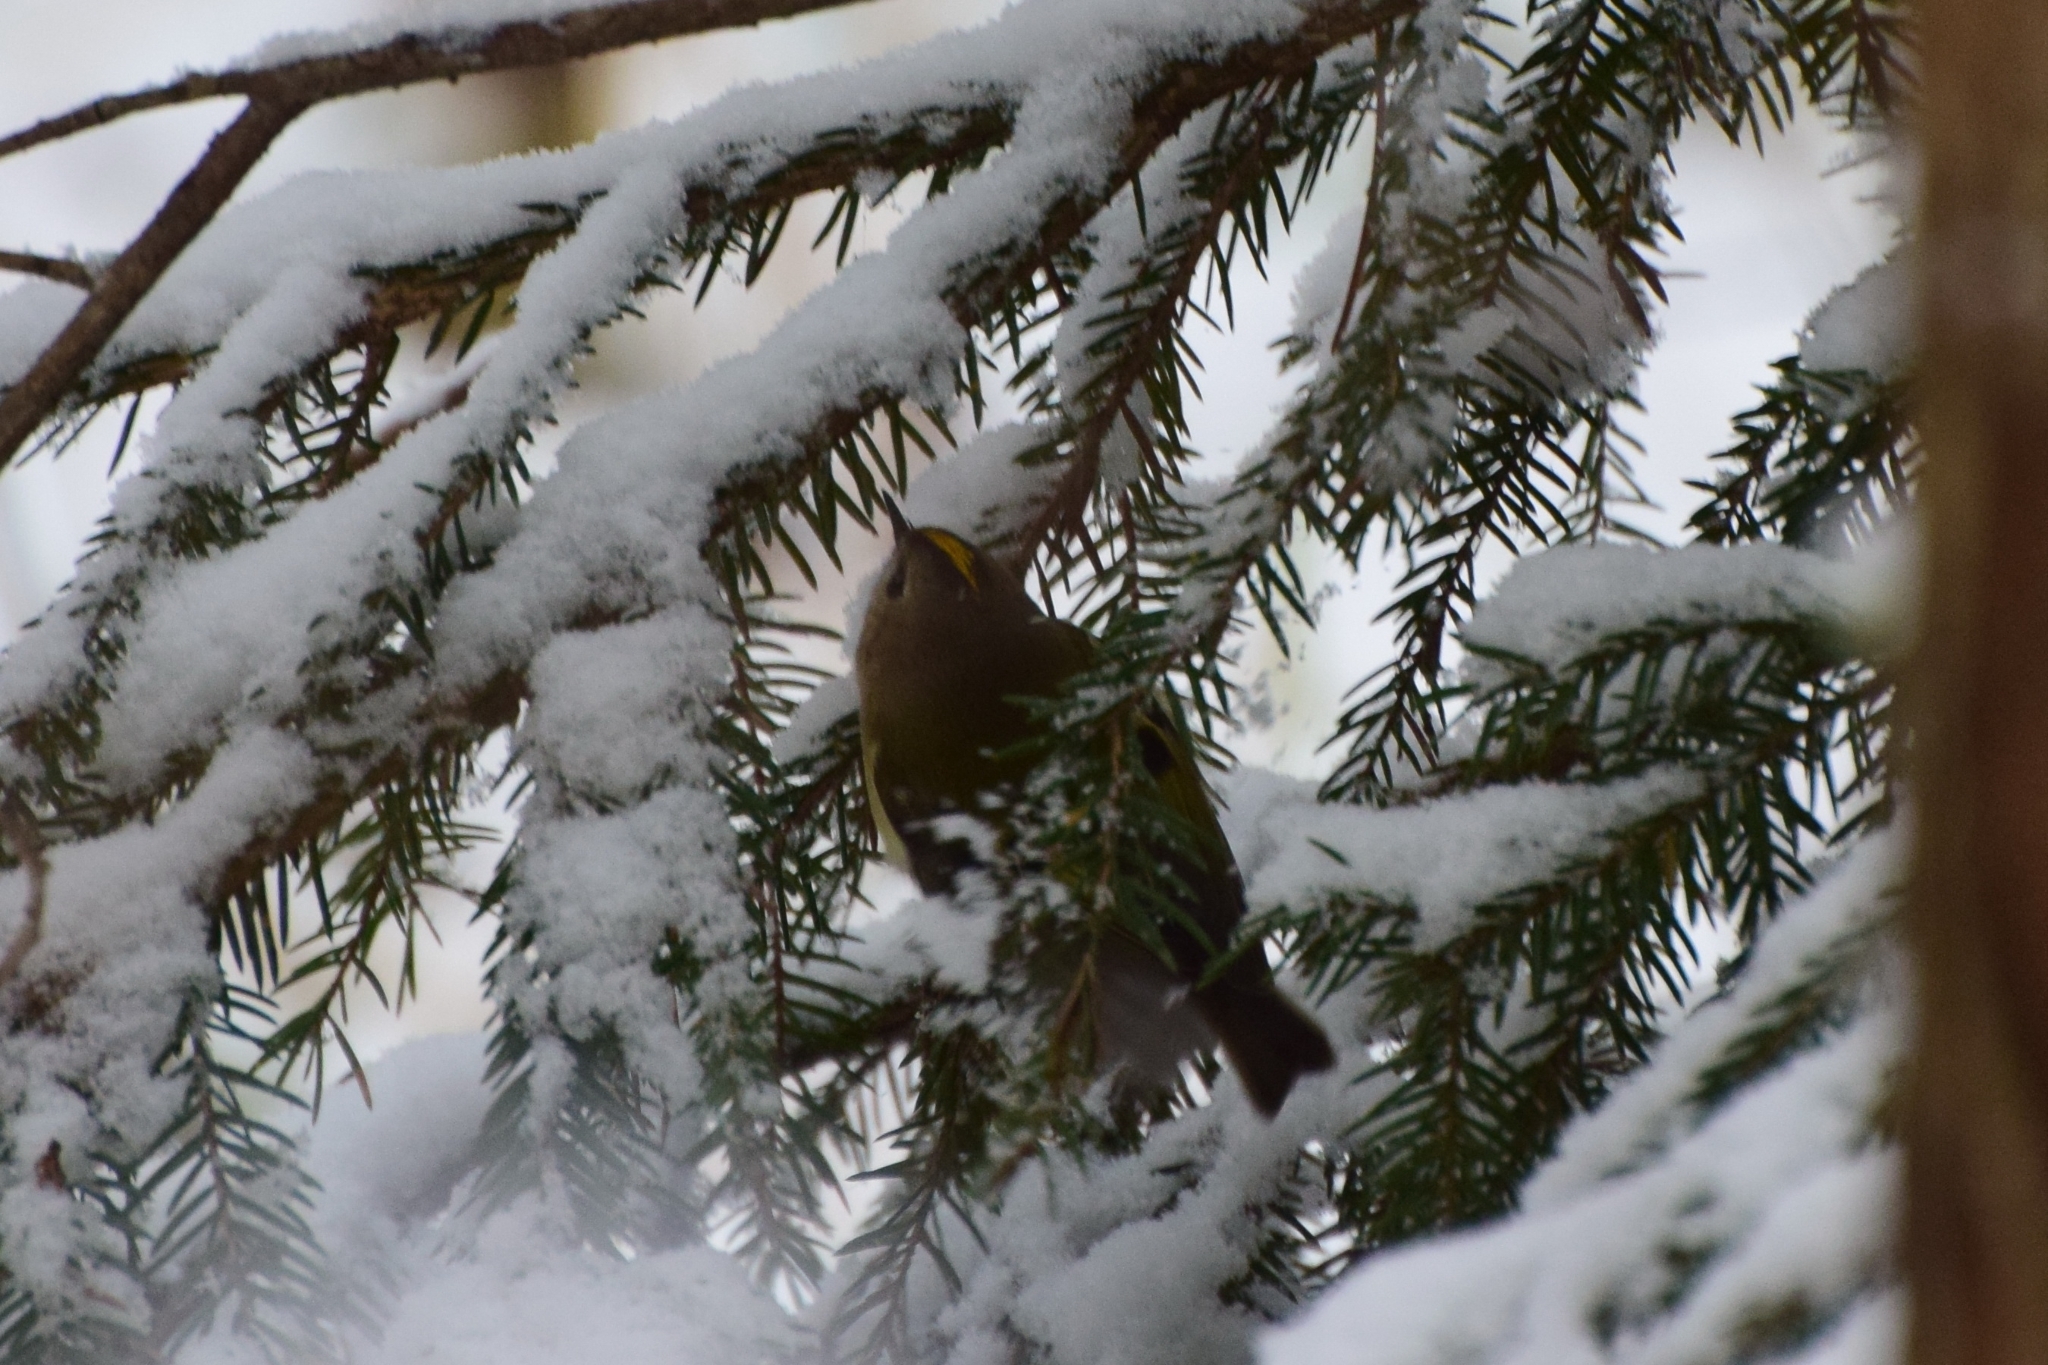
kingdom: Animalia
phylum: Chordata
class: Aves
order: Passeriformes
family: Regulidae
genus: Regulus
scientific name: Regulus regulus
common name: Goldcrest
